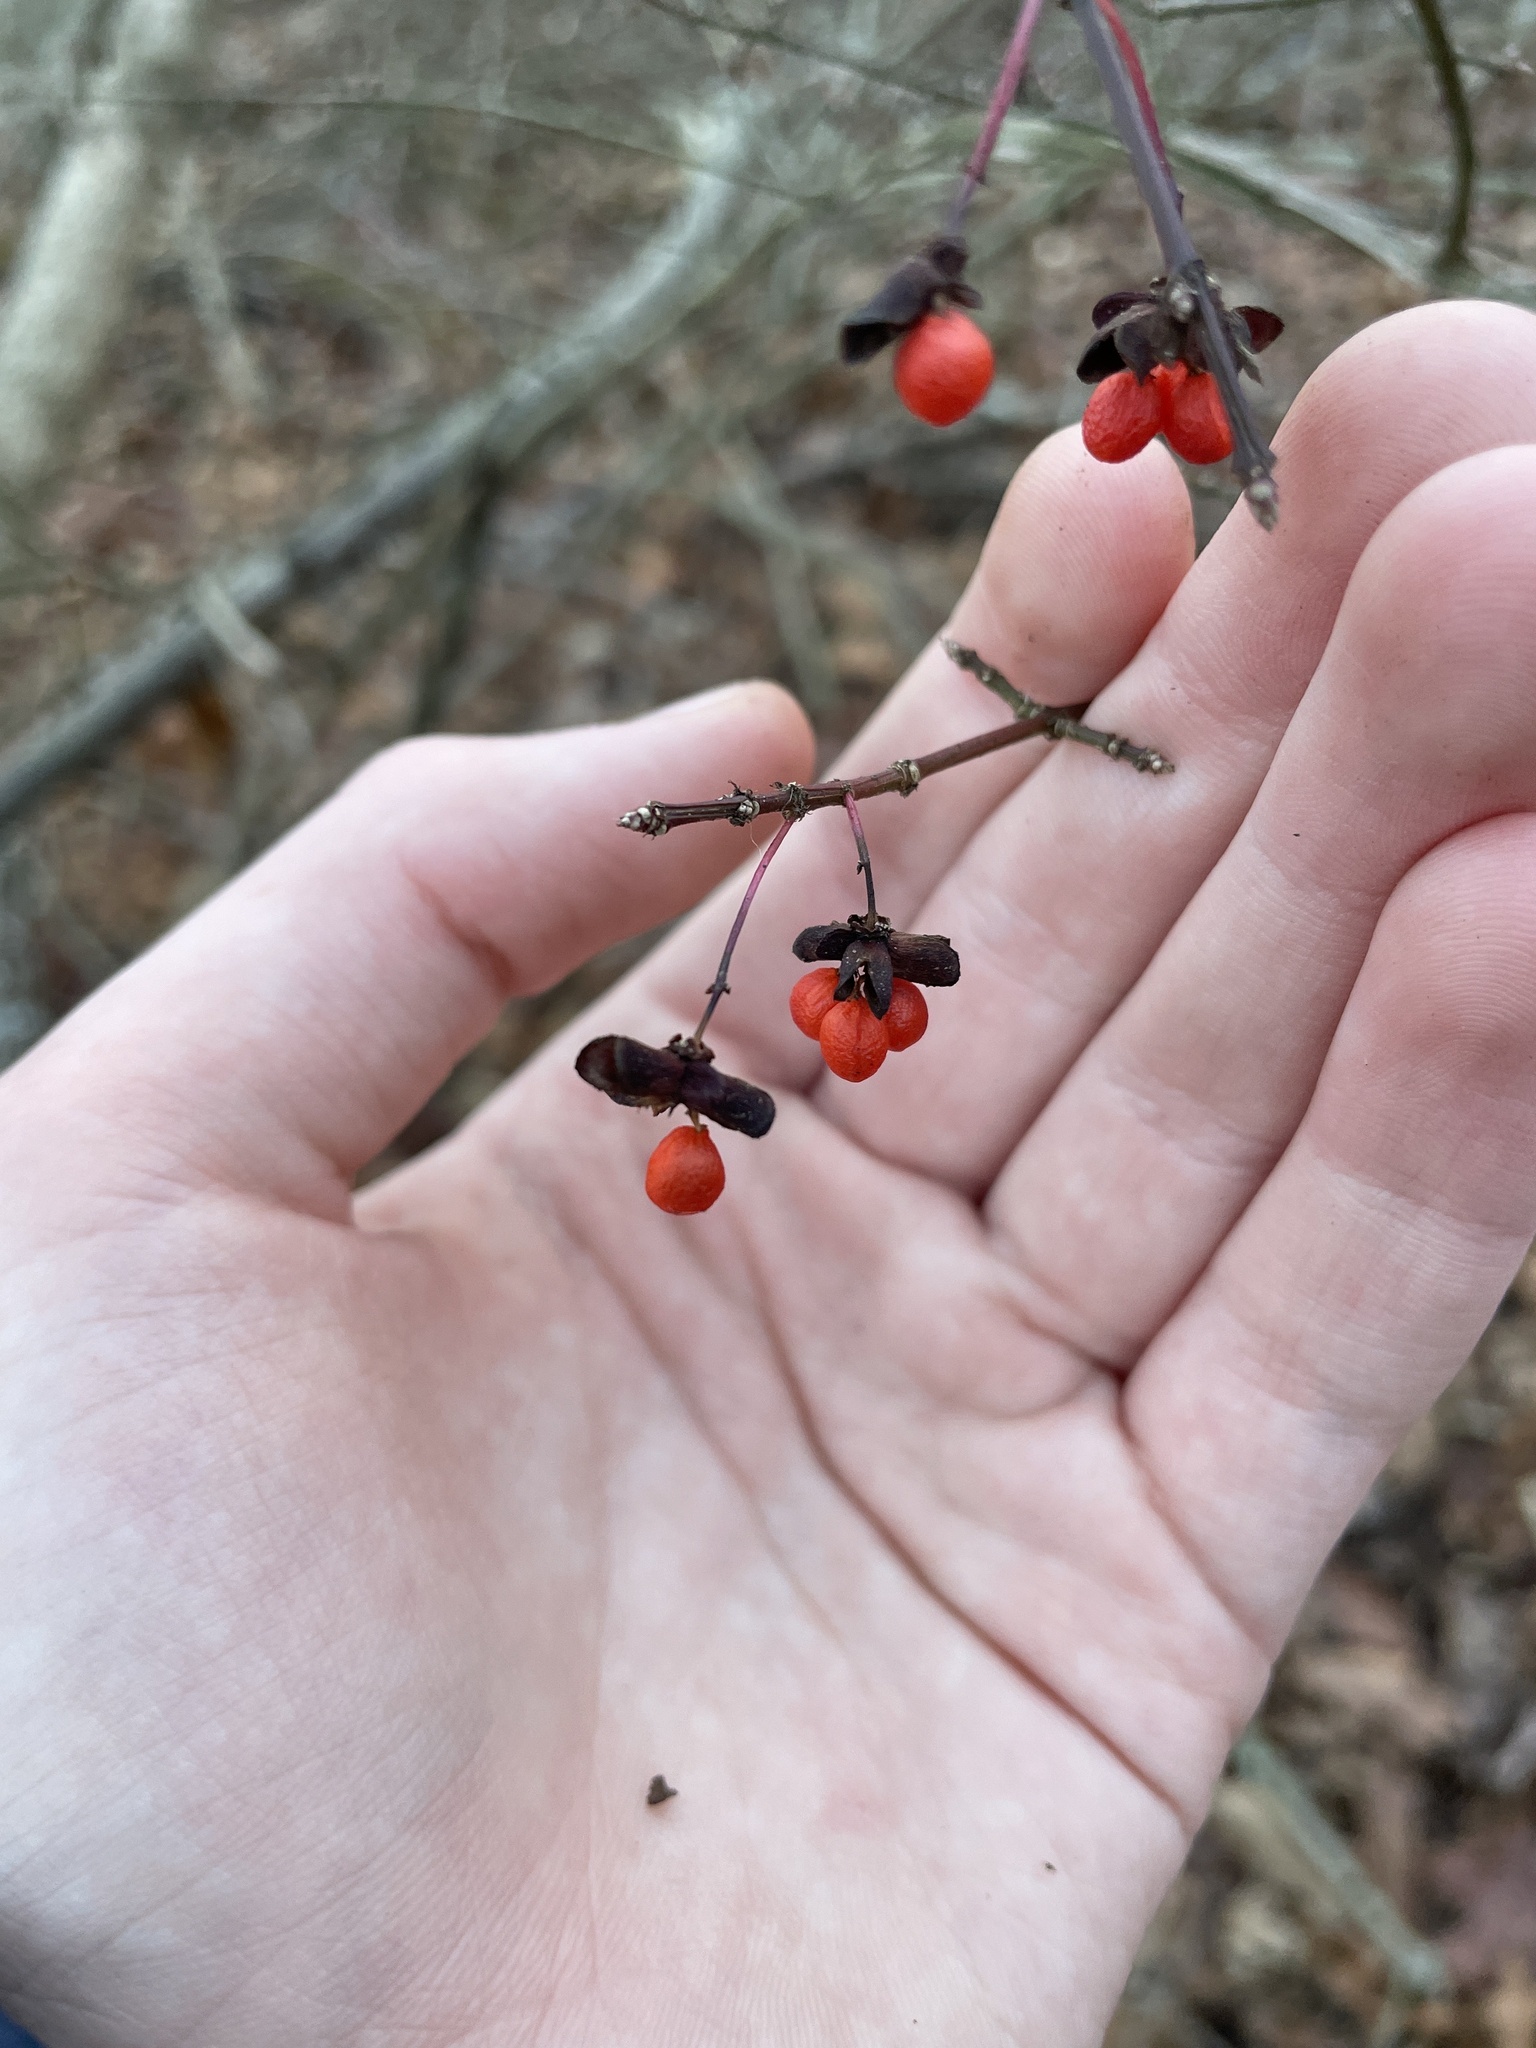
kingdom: Plantae
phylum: Tracheophyta
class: Magnoliopsida
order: Celastrales
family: Celastraceae
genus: Euonymus
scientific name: Euonymus alatus
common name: Winged euonymus
